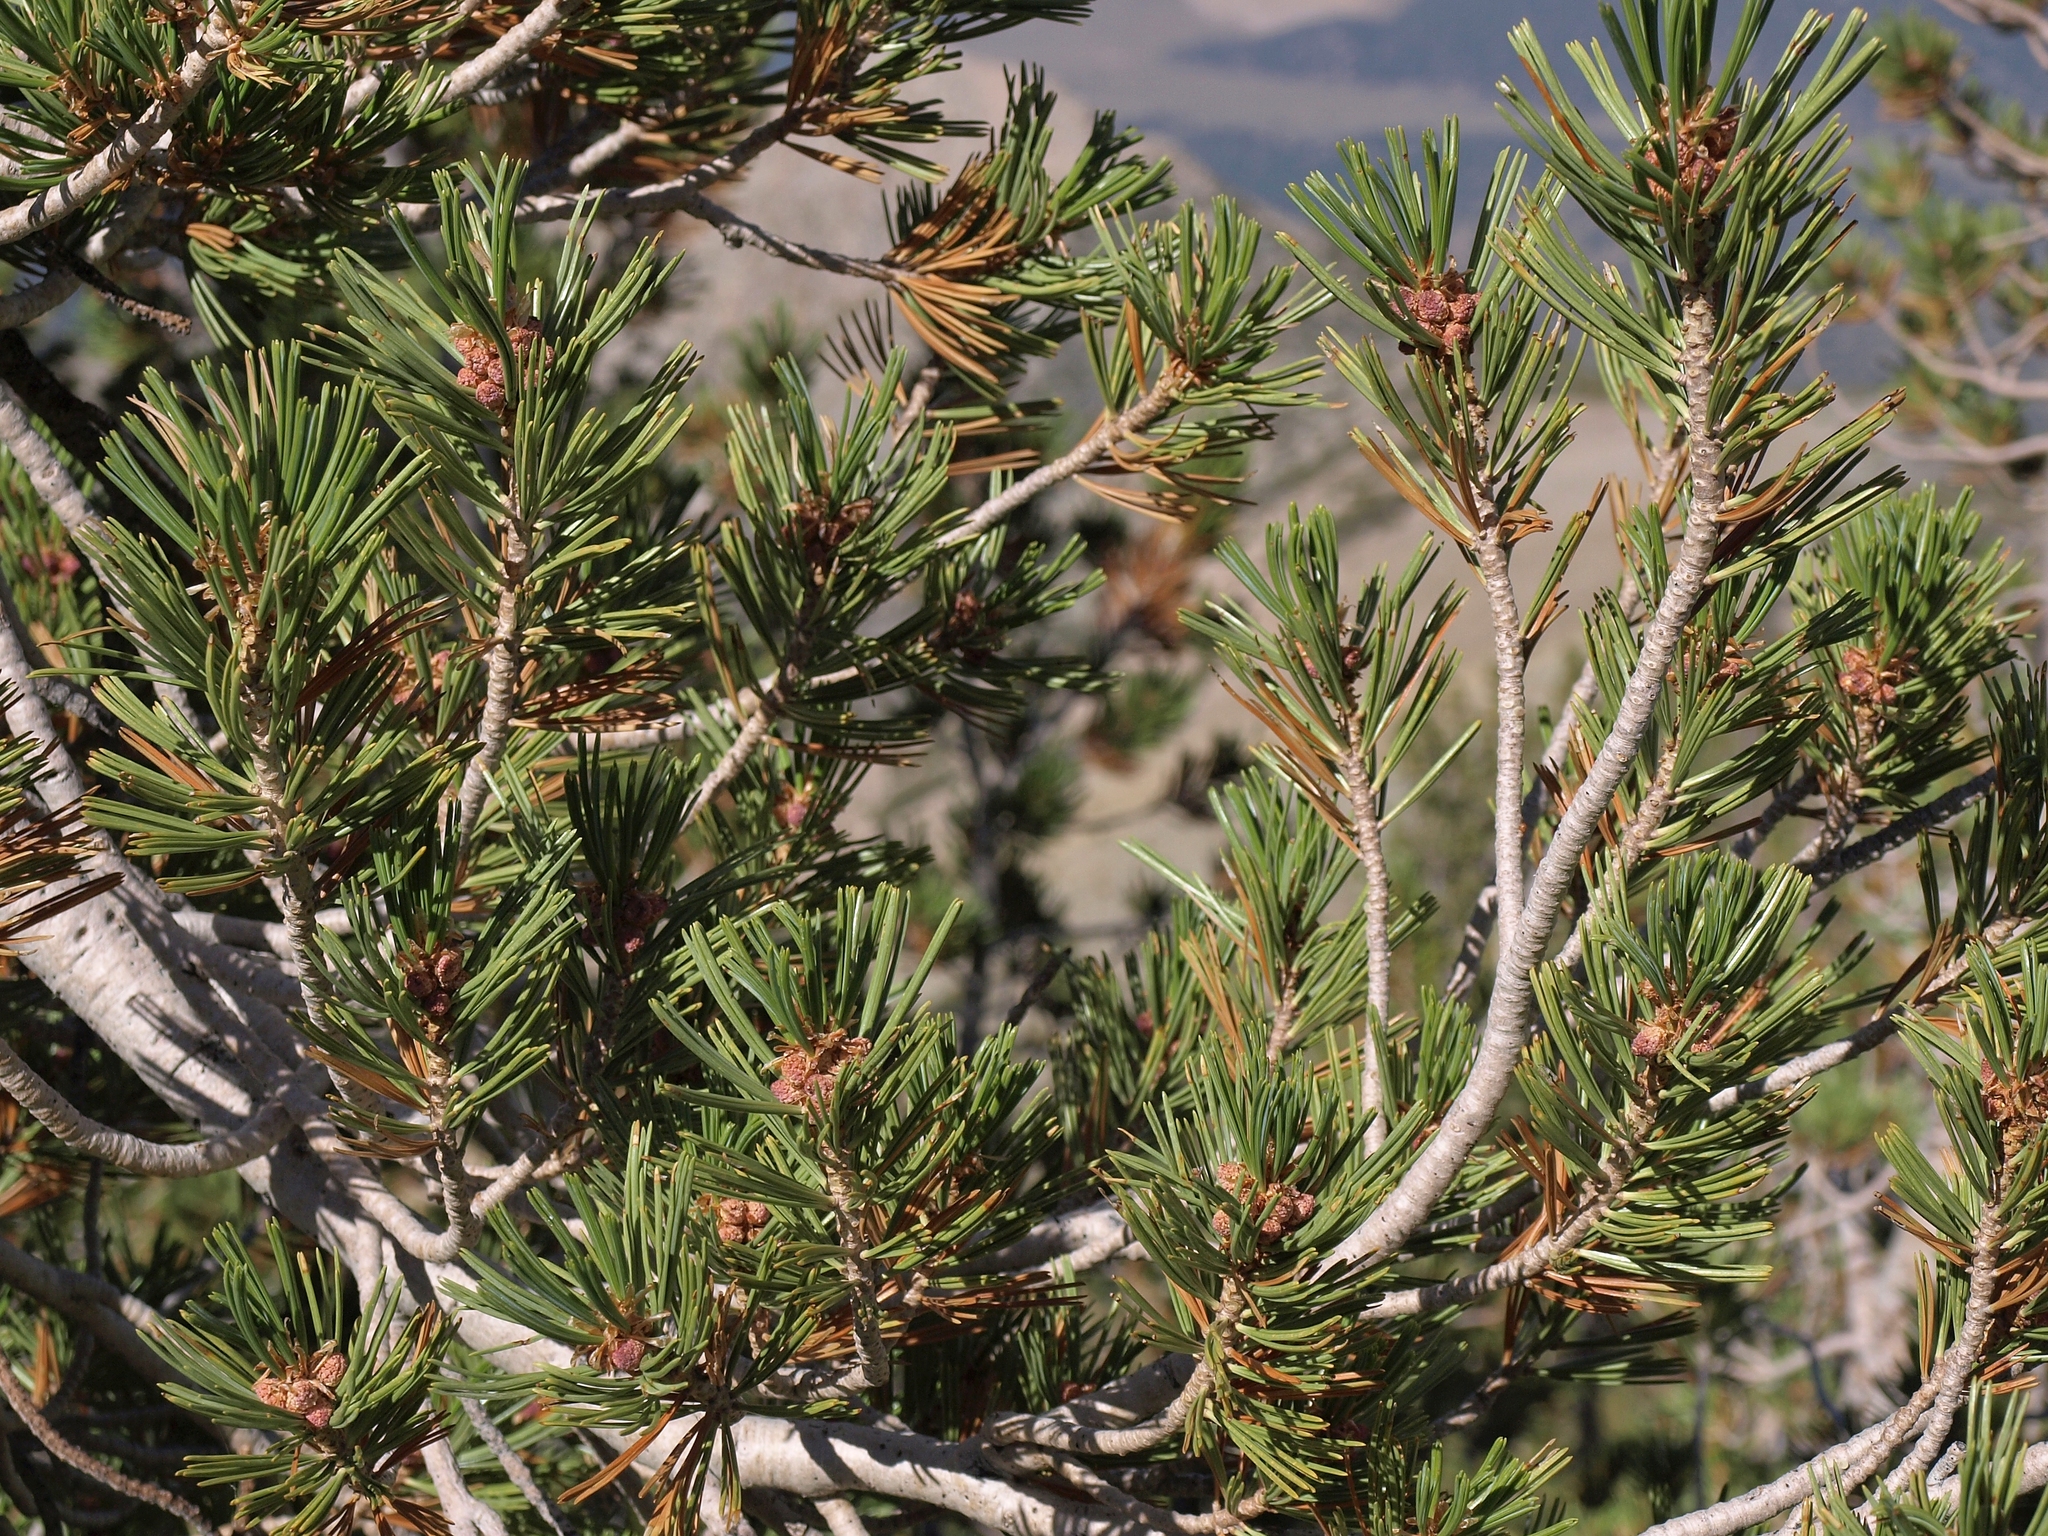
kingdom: Plantae
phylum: Tracheophyta
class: Pinopsida
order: Pinales
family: Pinaceae
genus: Pinus
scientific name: Pinus albicaulis
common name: Whitebark pine
